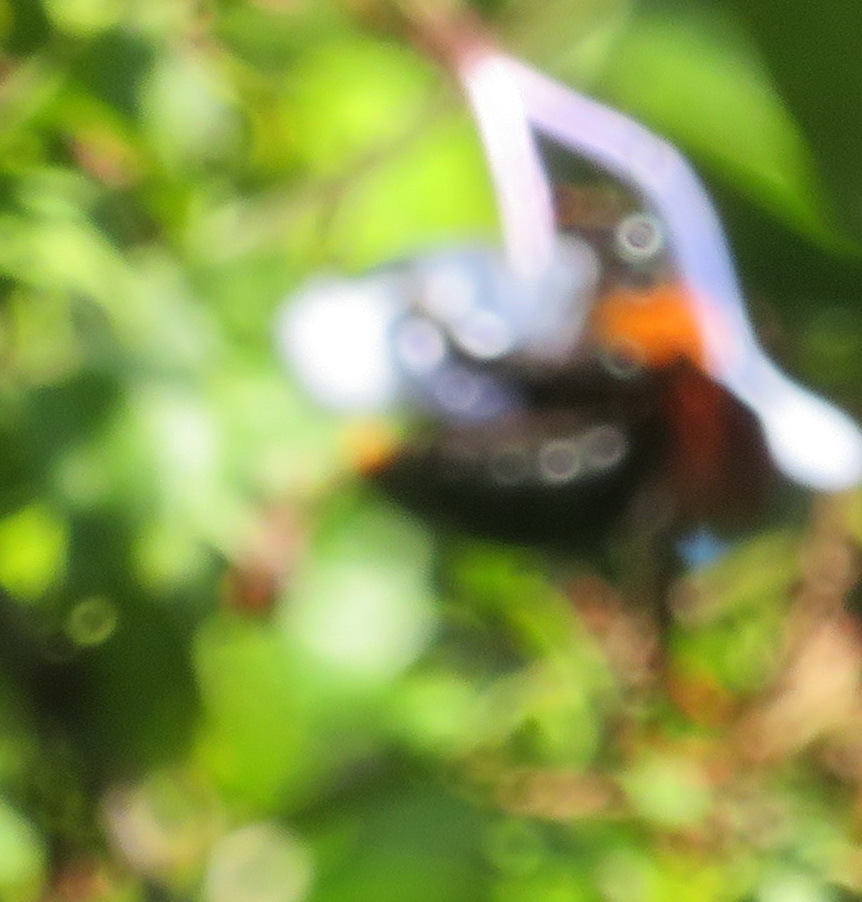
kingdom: Animalia
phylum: Arthropoda
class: Insecta
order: Hymenoptera
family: Apidae
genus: Xylocopa
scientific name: Xylocopa flavorufa
